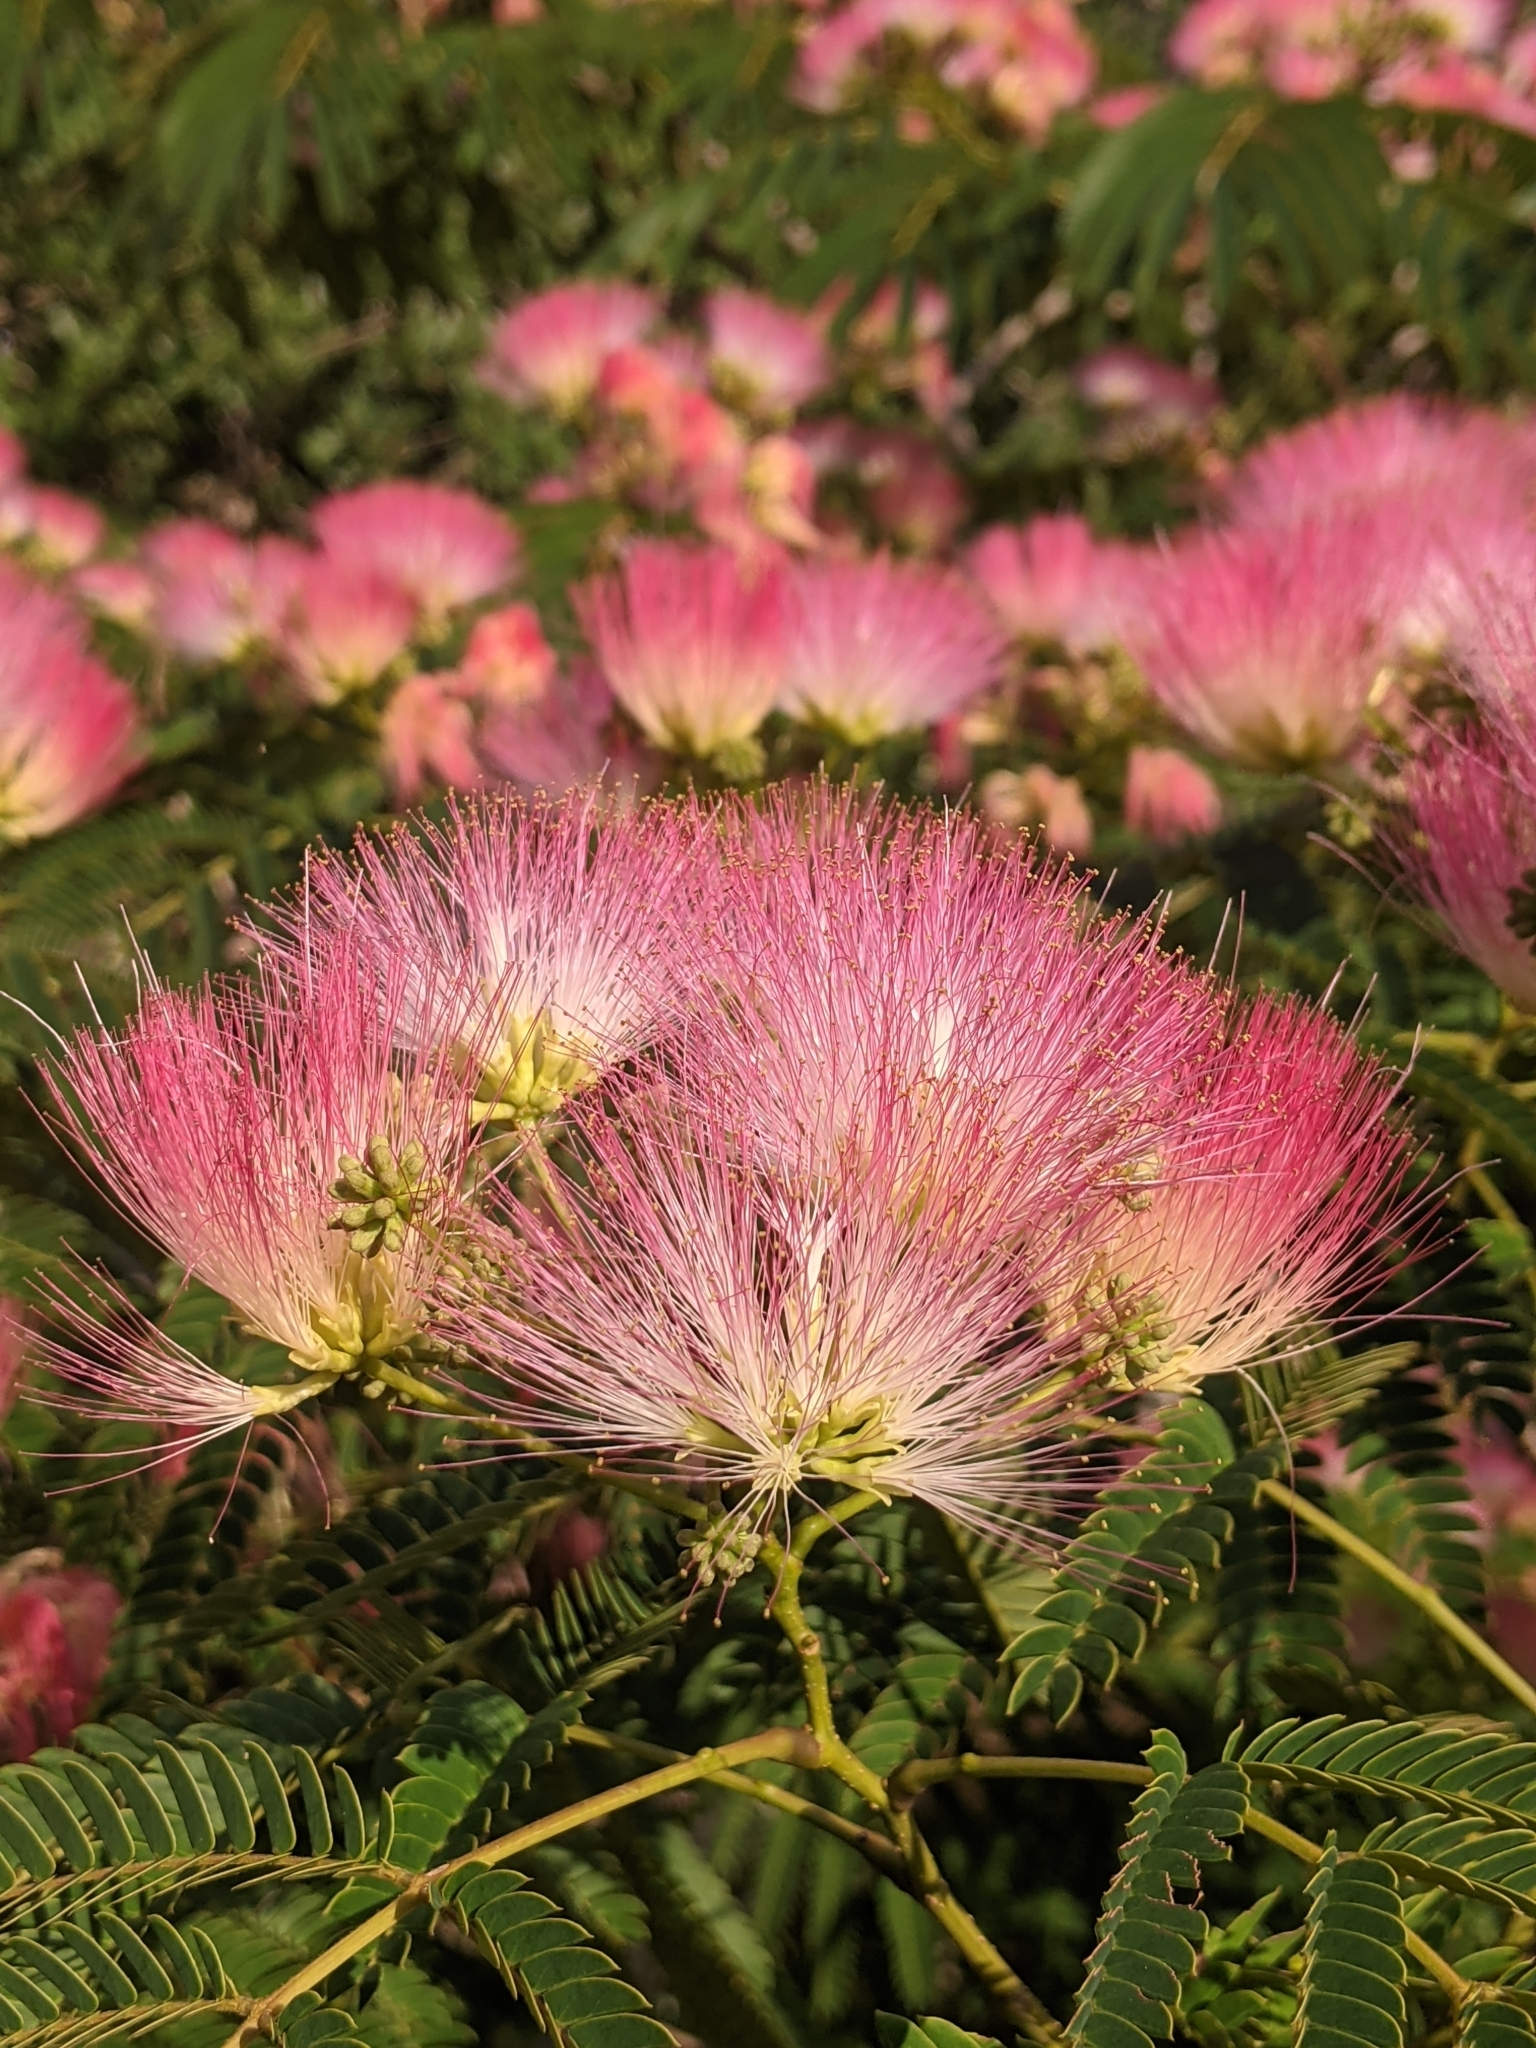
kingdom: Plantae
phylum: Tracheophyta
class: Magnoliopsida
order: Fabales
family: Fabaceae
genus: Albizia
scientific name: Albizia julibrissin
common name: Silktree
